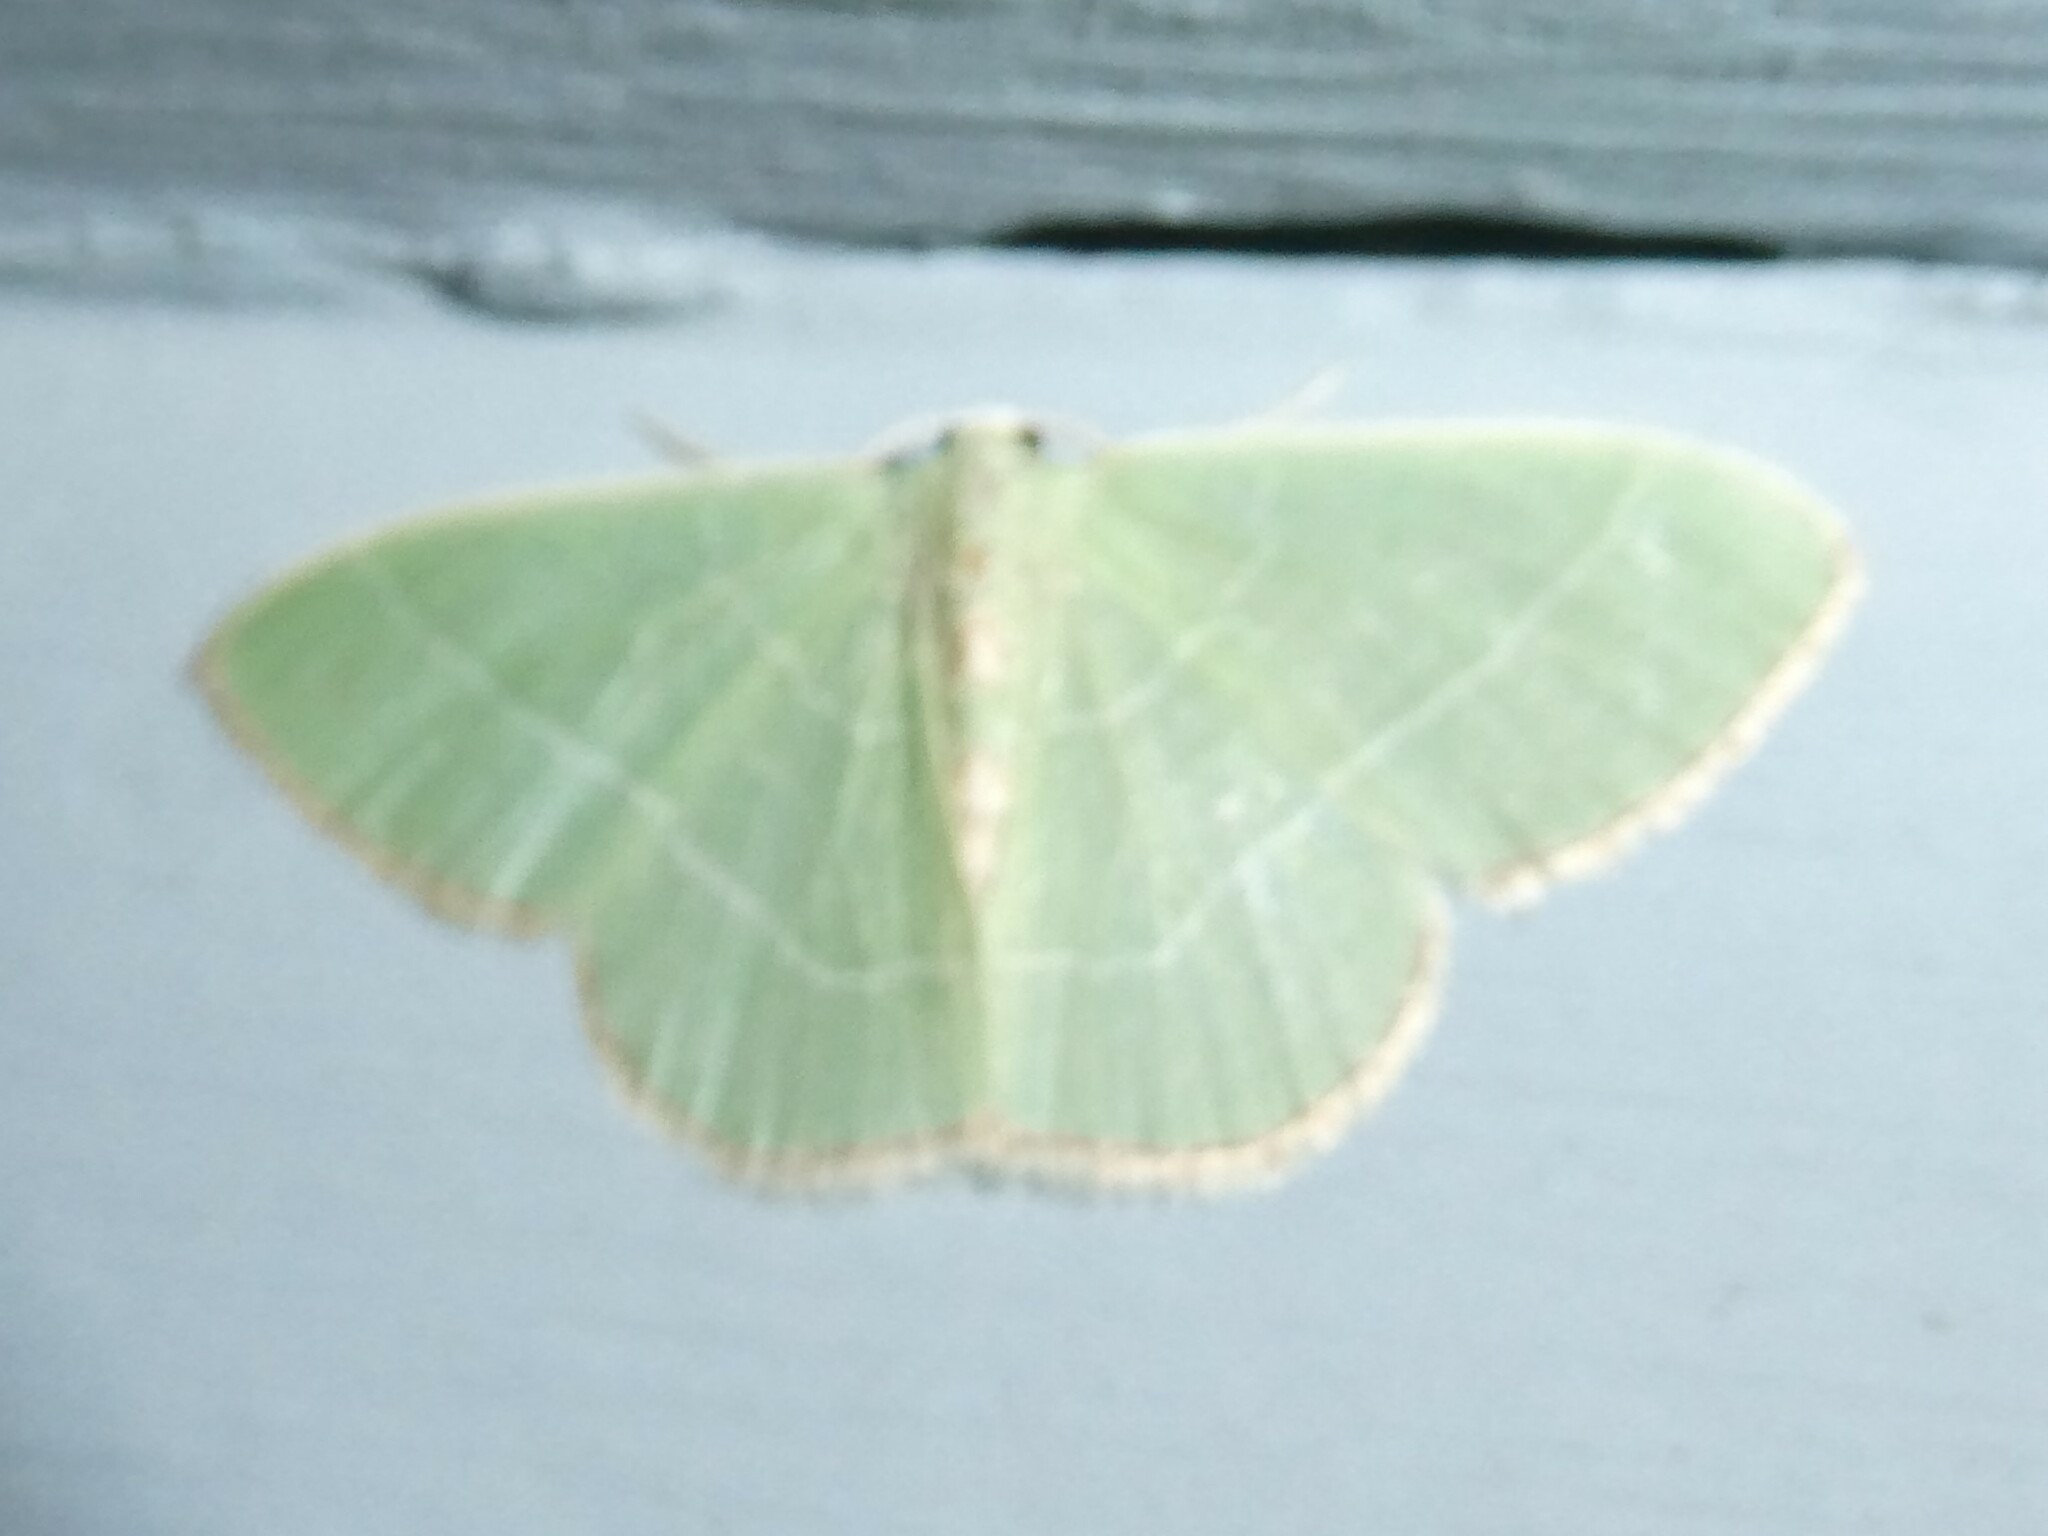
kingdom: Animalia
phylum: Arthropoda
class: Insecta
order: Lepidoptera
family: Geometridae
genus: Nemoria
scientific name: Nemoria bistriaria
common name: Red-fringed emerald
